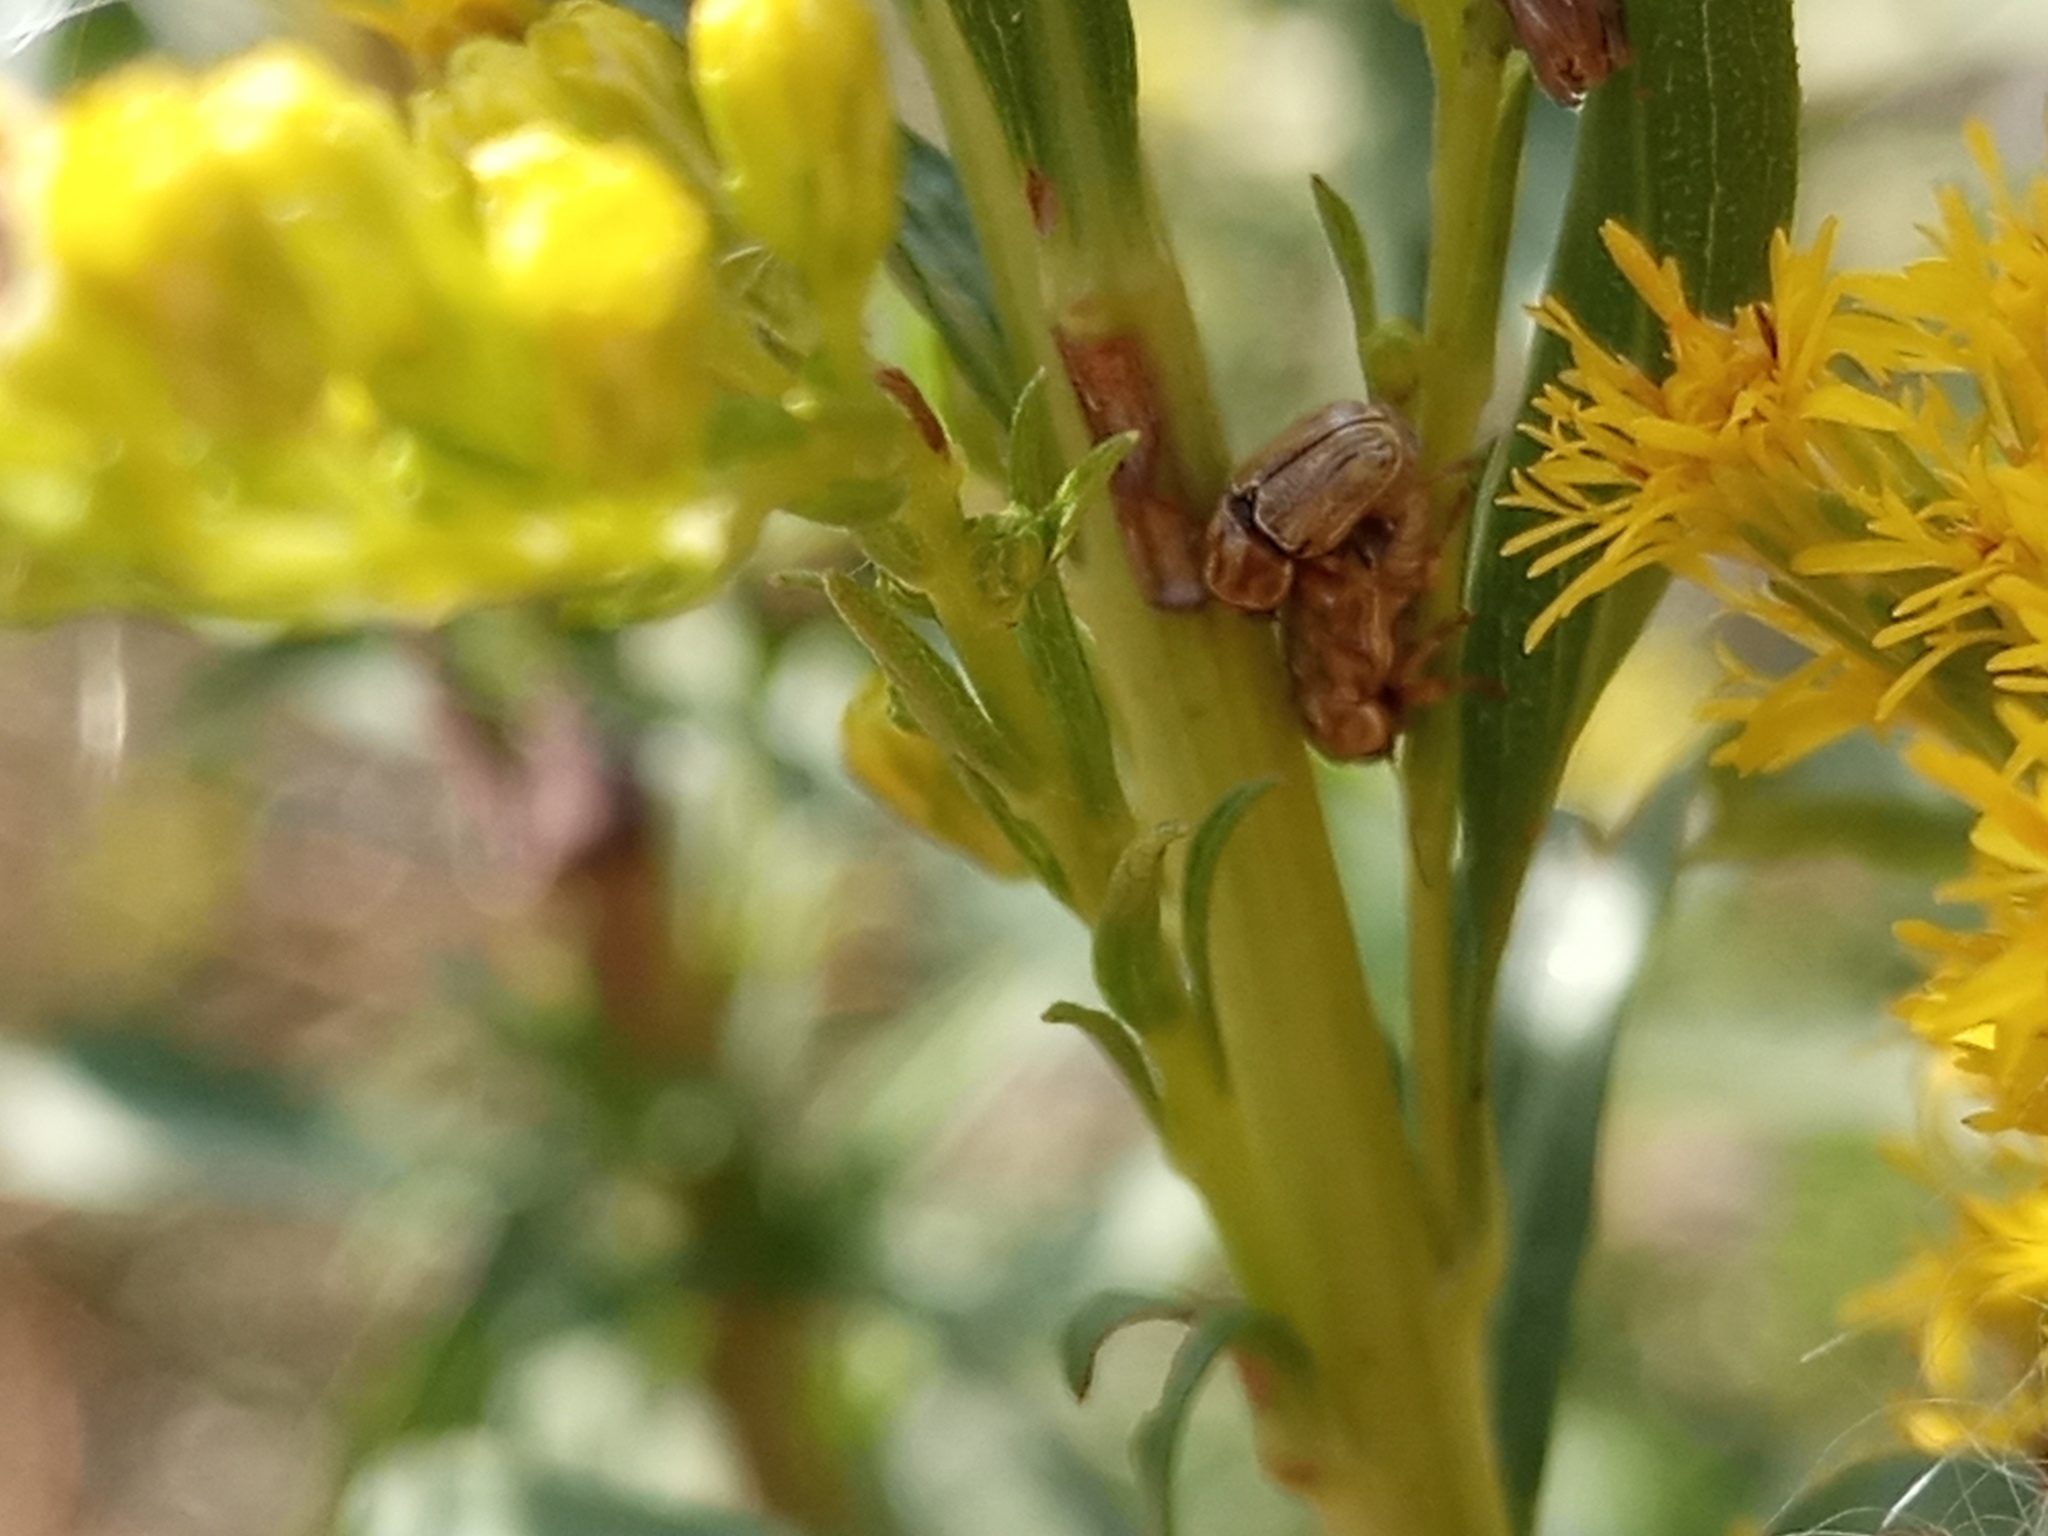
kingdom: Animalia
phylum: Arthropoda
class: Insecta
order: Coleoptera
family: Chrysomelidae
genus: Pachybrachis
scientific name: Pachybrachis
